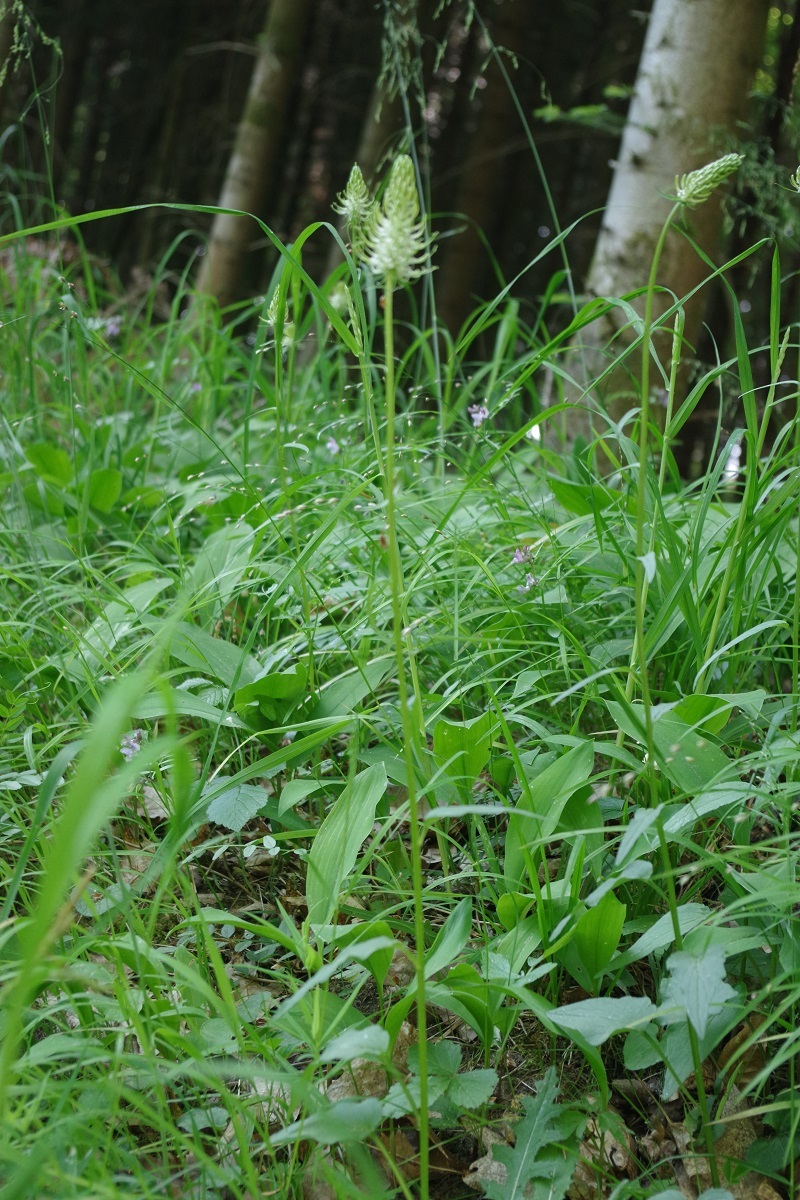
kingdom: Plantae
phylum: Tracheophyta
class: Magnoliopsida
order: Asterales
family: Campanulaceae
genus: Phyteuma
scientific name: Phyteuma spicatum
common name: Spiked rampion
